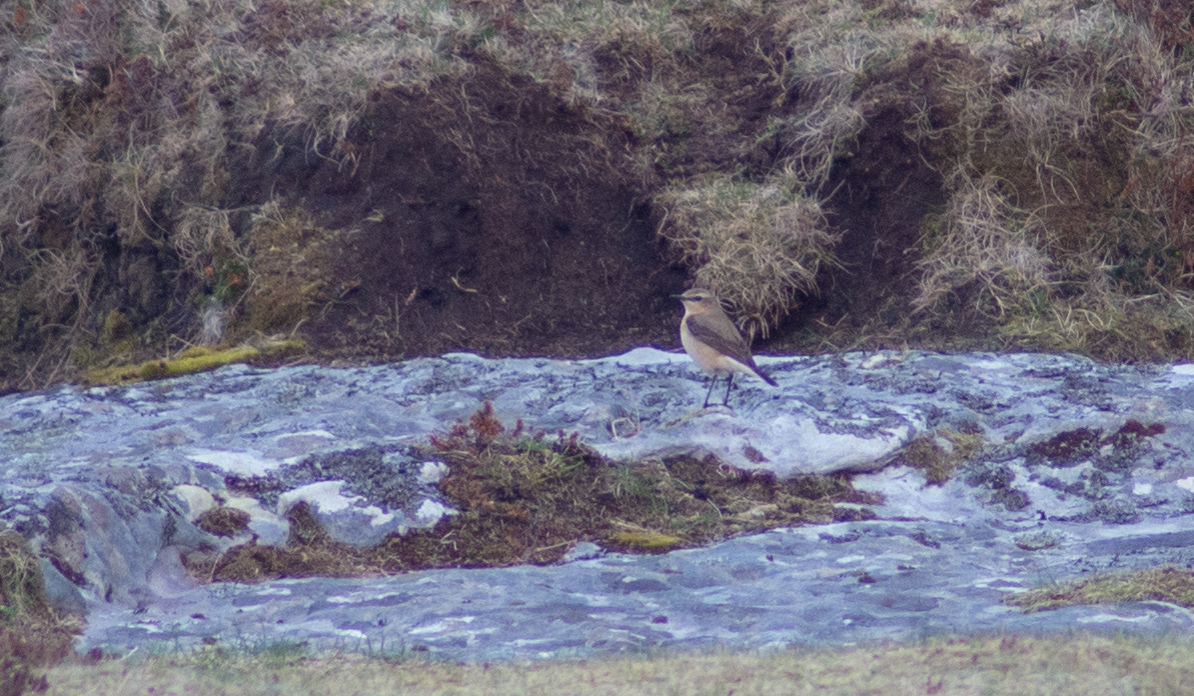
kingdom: Animalia
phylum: Chordata
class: Aves
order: Passeriformes
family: Muscicapidae
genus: Oenanthe
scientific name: Oenanthe oenanthe
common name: Northern wheatear
